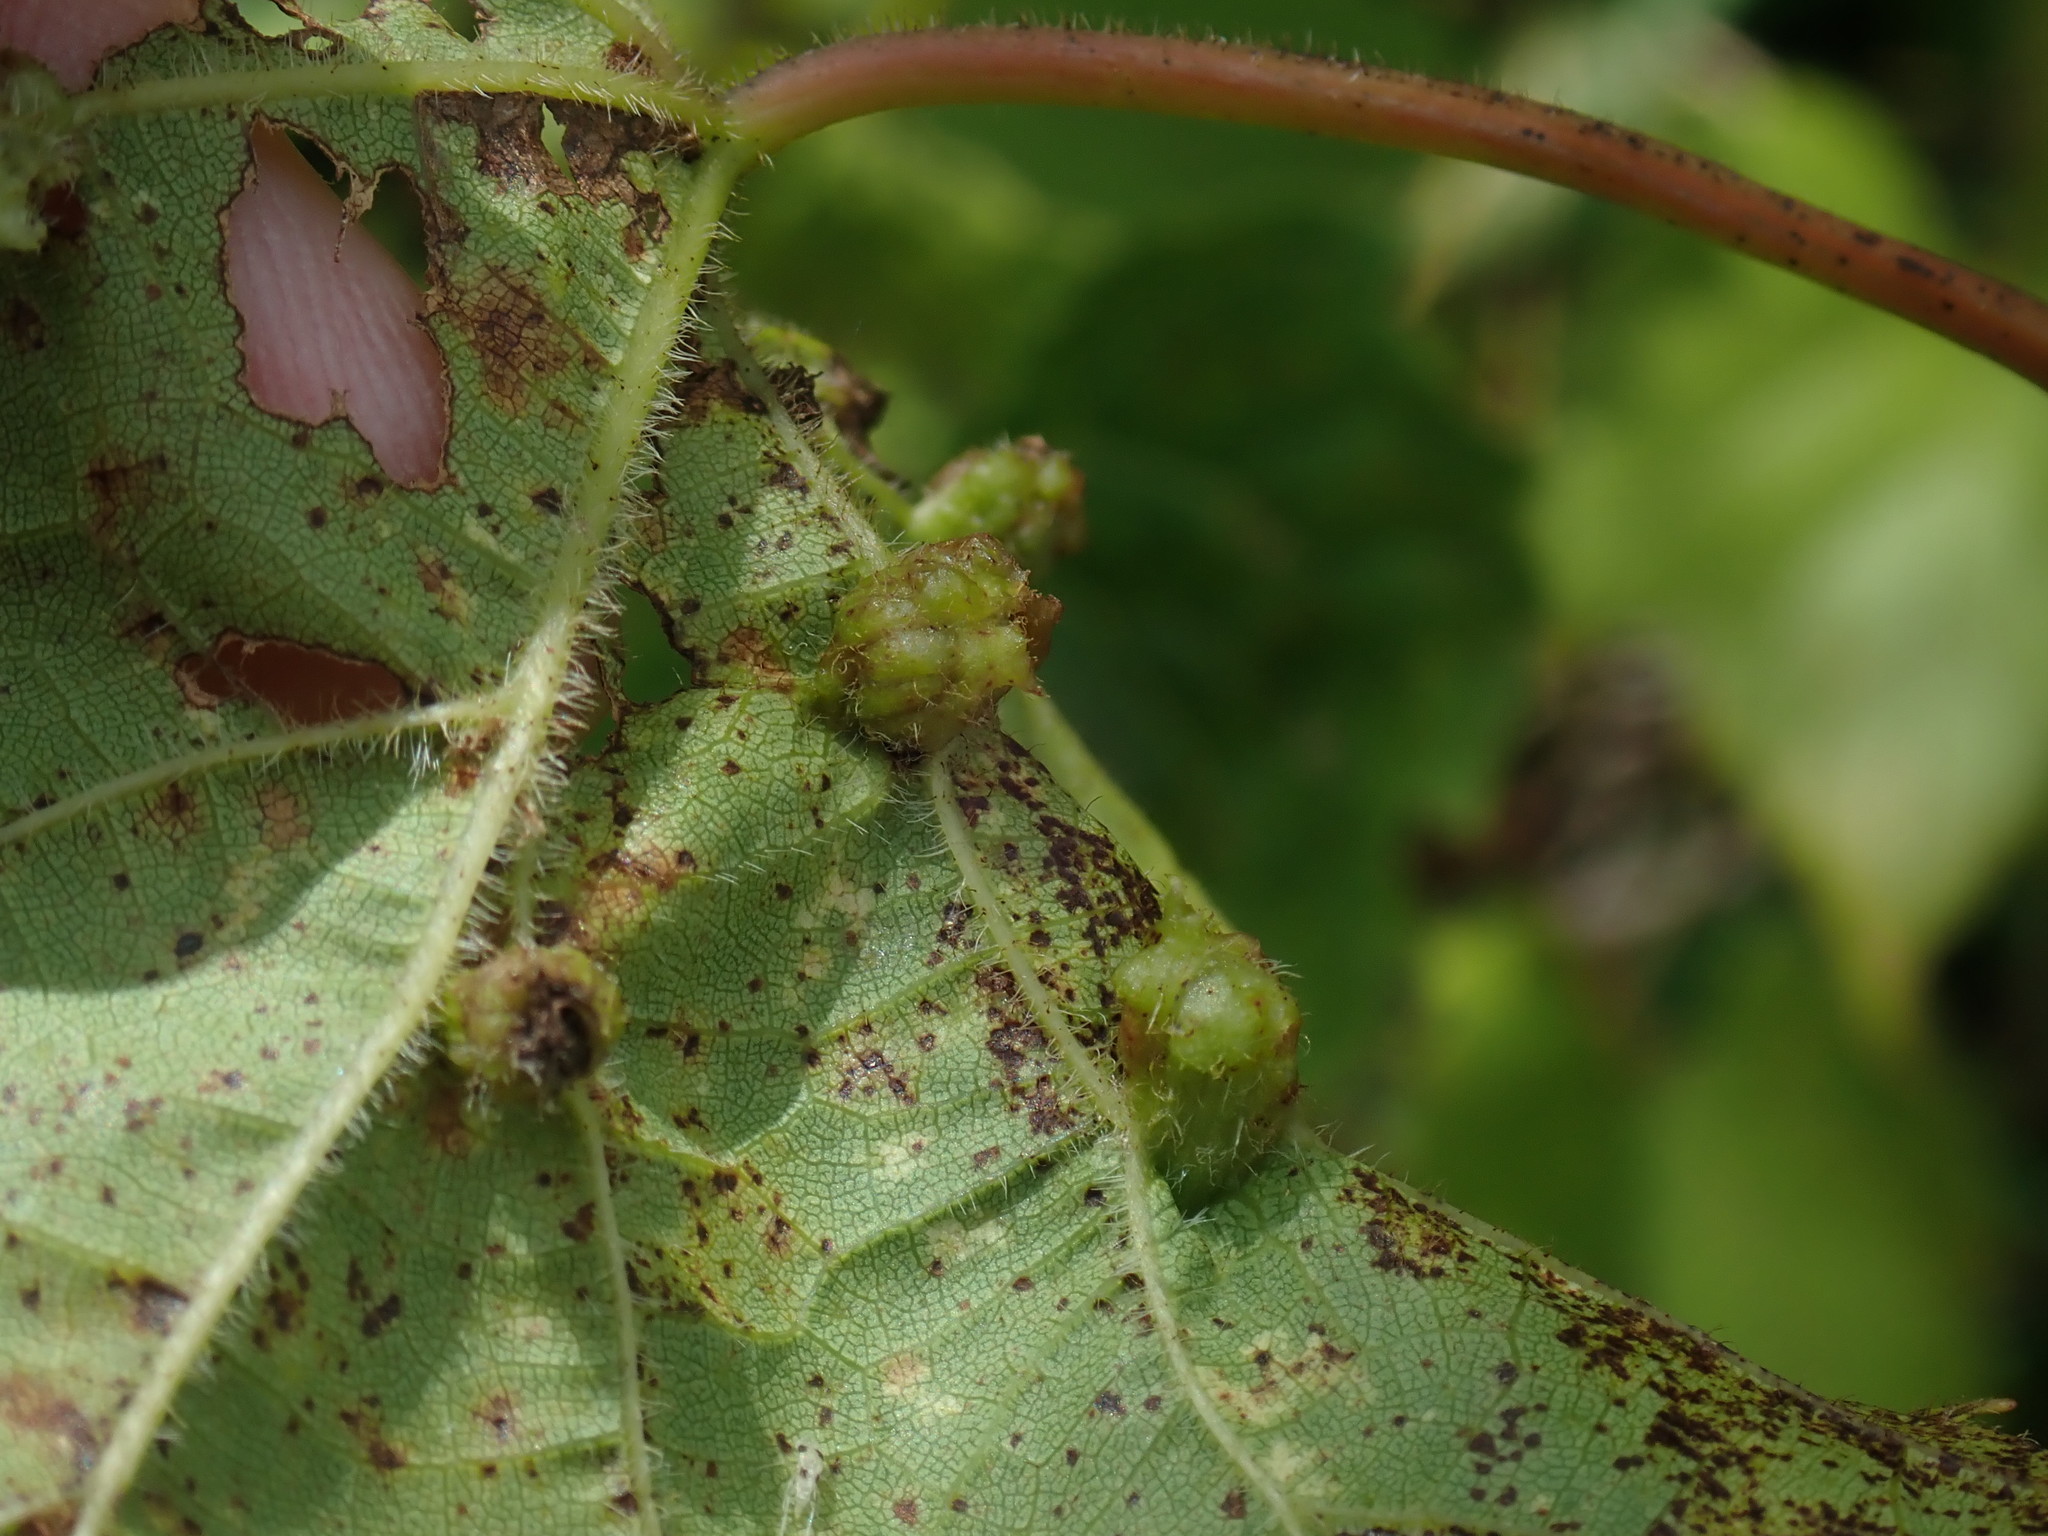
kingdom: Animalia
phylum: Arthropoda
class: Insecta
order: Hemiptera
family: Phylloxeridae
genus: Daktulosphaira
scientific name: Daktulosphaira vitifoliae
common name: Grape phylloxera
